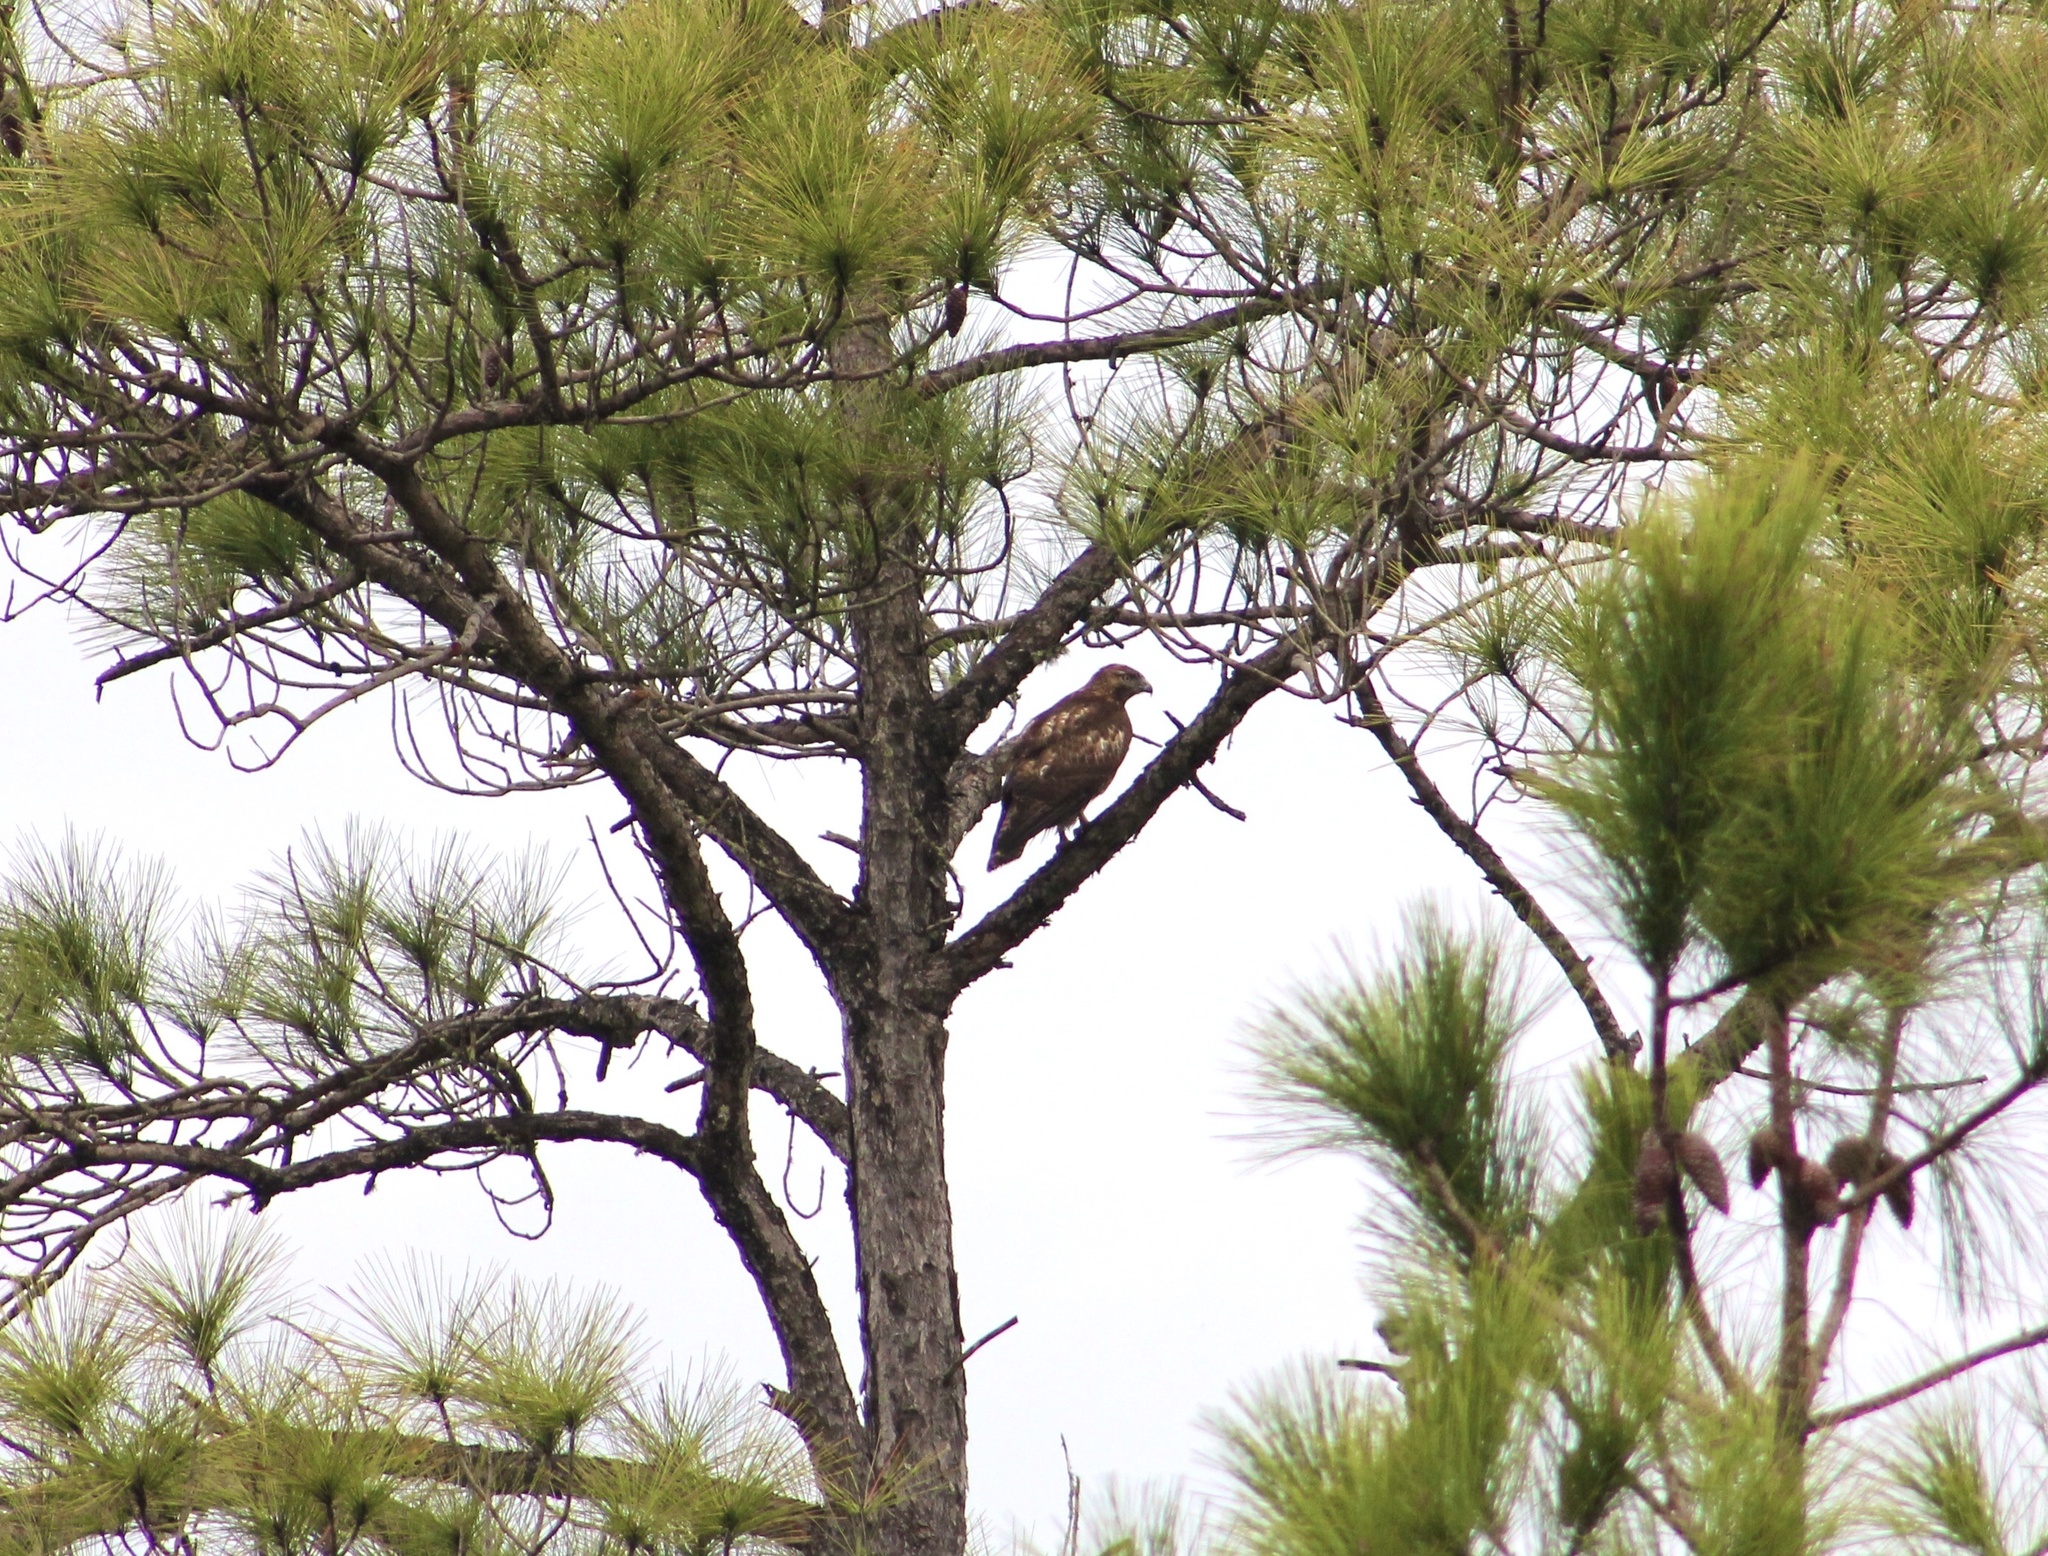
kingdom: Animalia
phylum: Chordata
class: Aves
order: Accipitriformes
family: Accipitridae
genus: Buteo
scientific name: Buteo jamaicensis
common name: Red-tailed hawk
